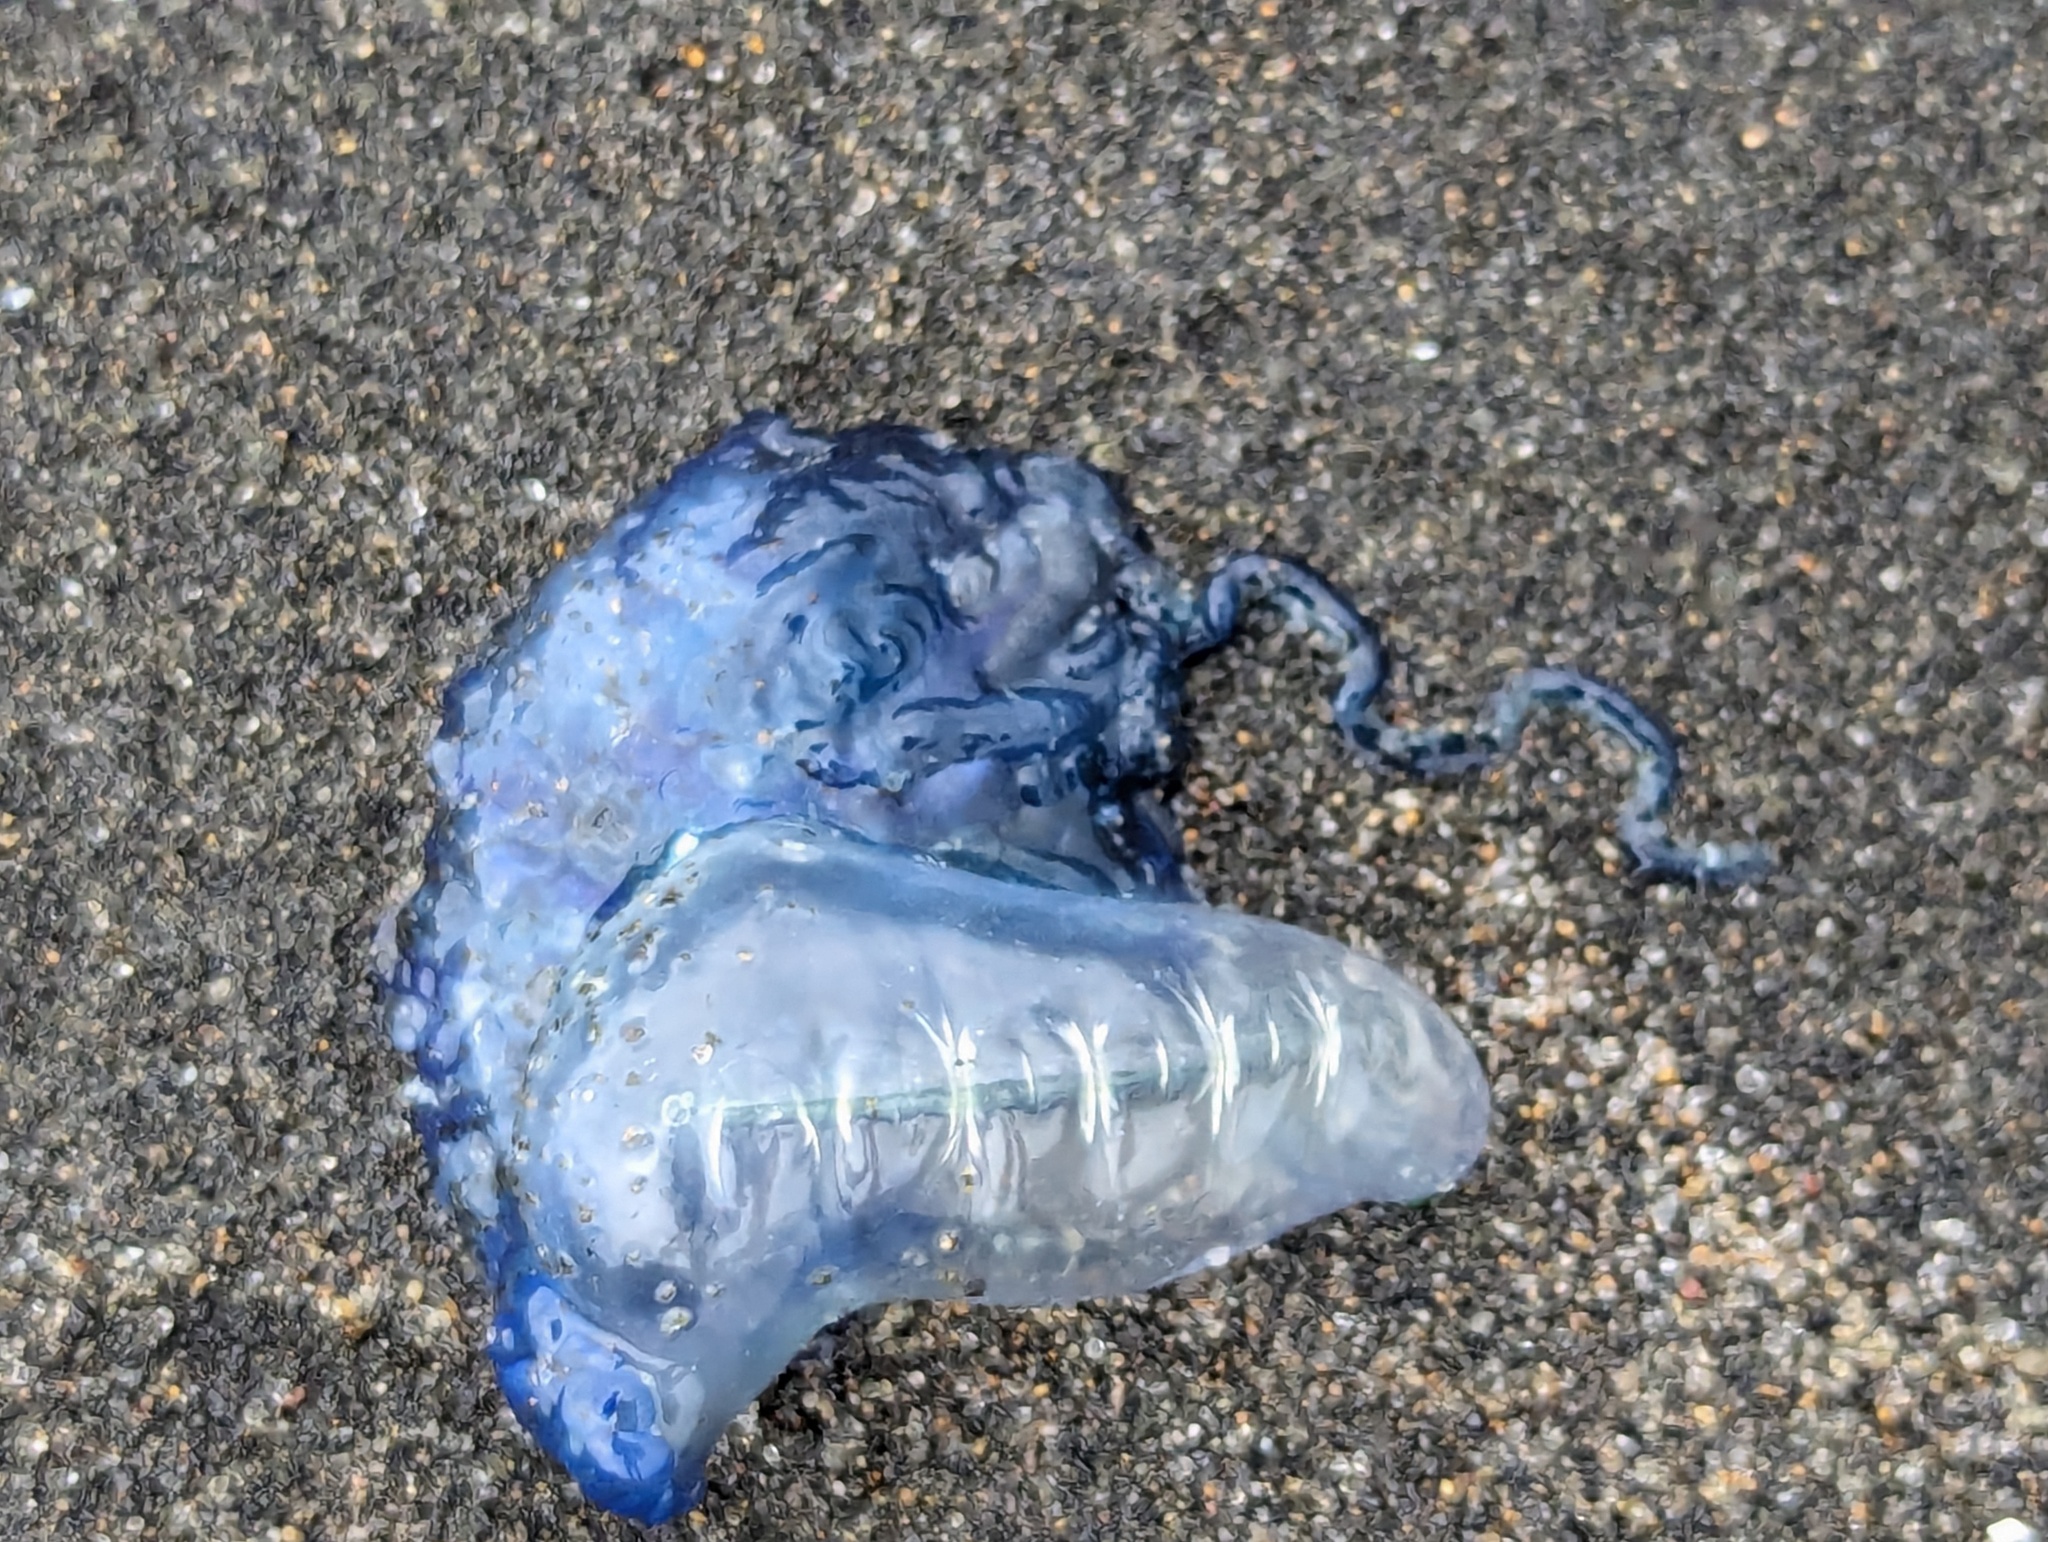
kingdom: Animalia
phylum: Cnidaria
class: Hydrozoa
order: Siphonophorae
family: Physaliidae
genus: Physalia
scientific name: Physalia physalis
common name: Portuguese man-of-war
